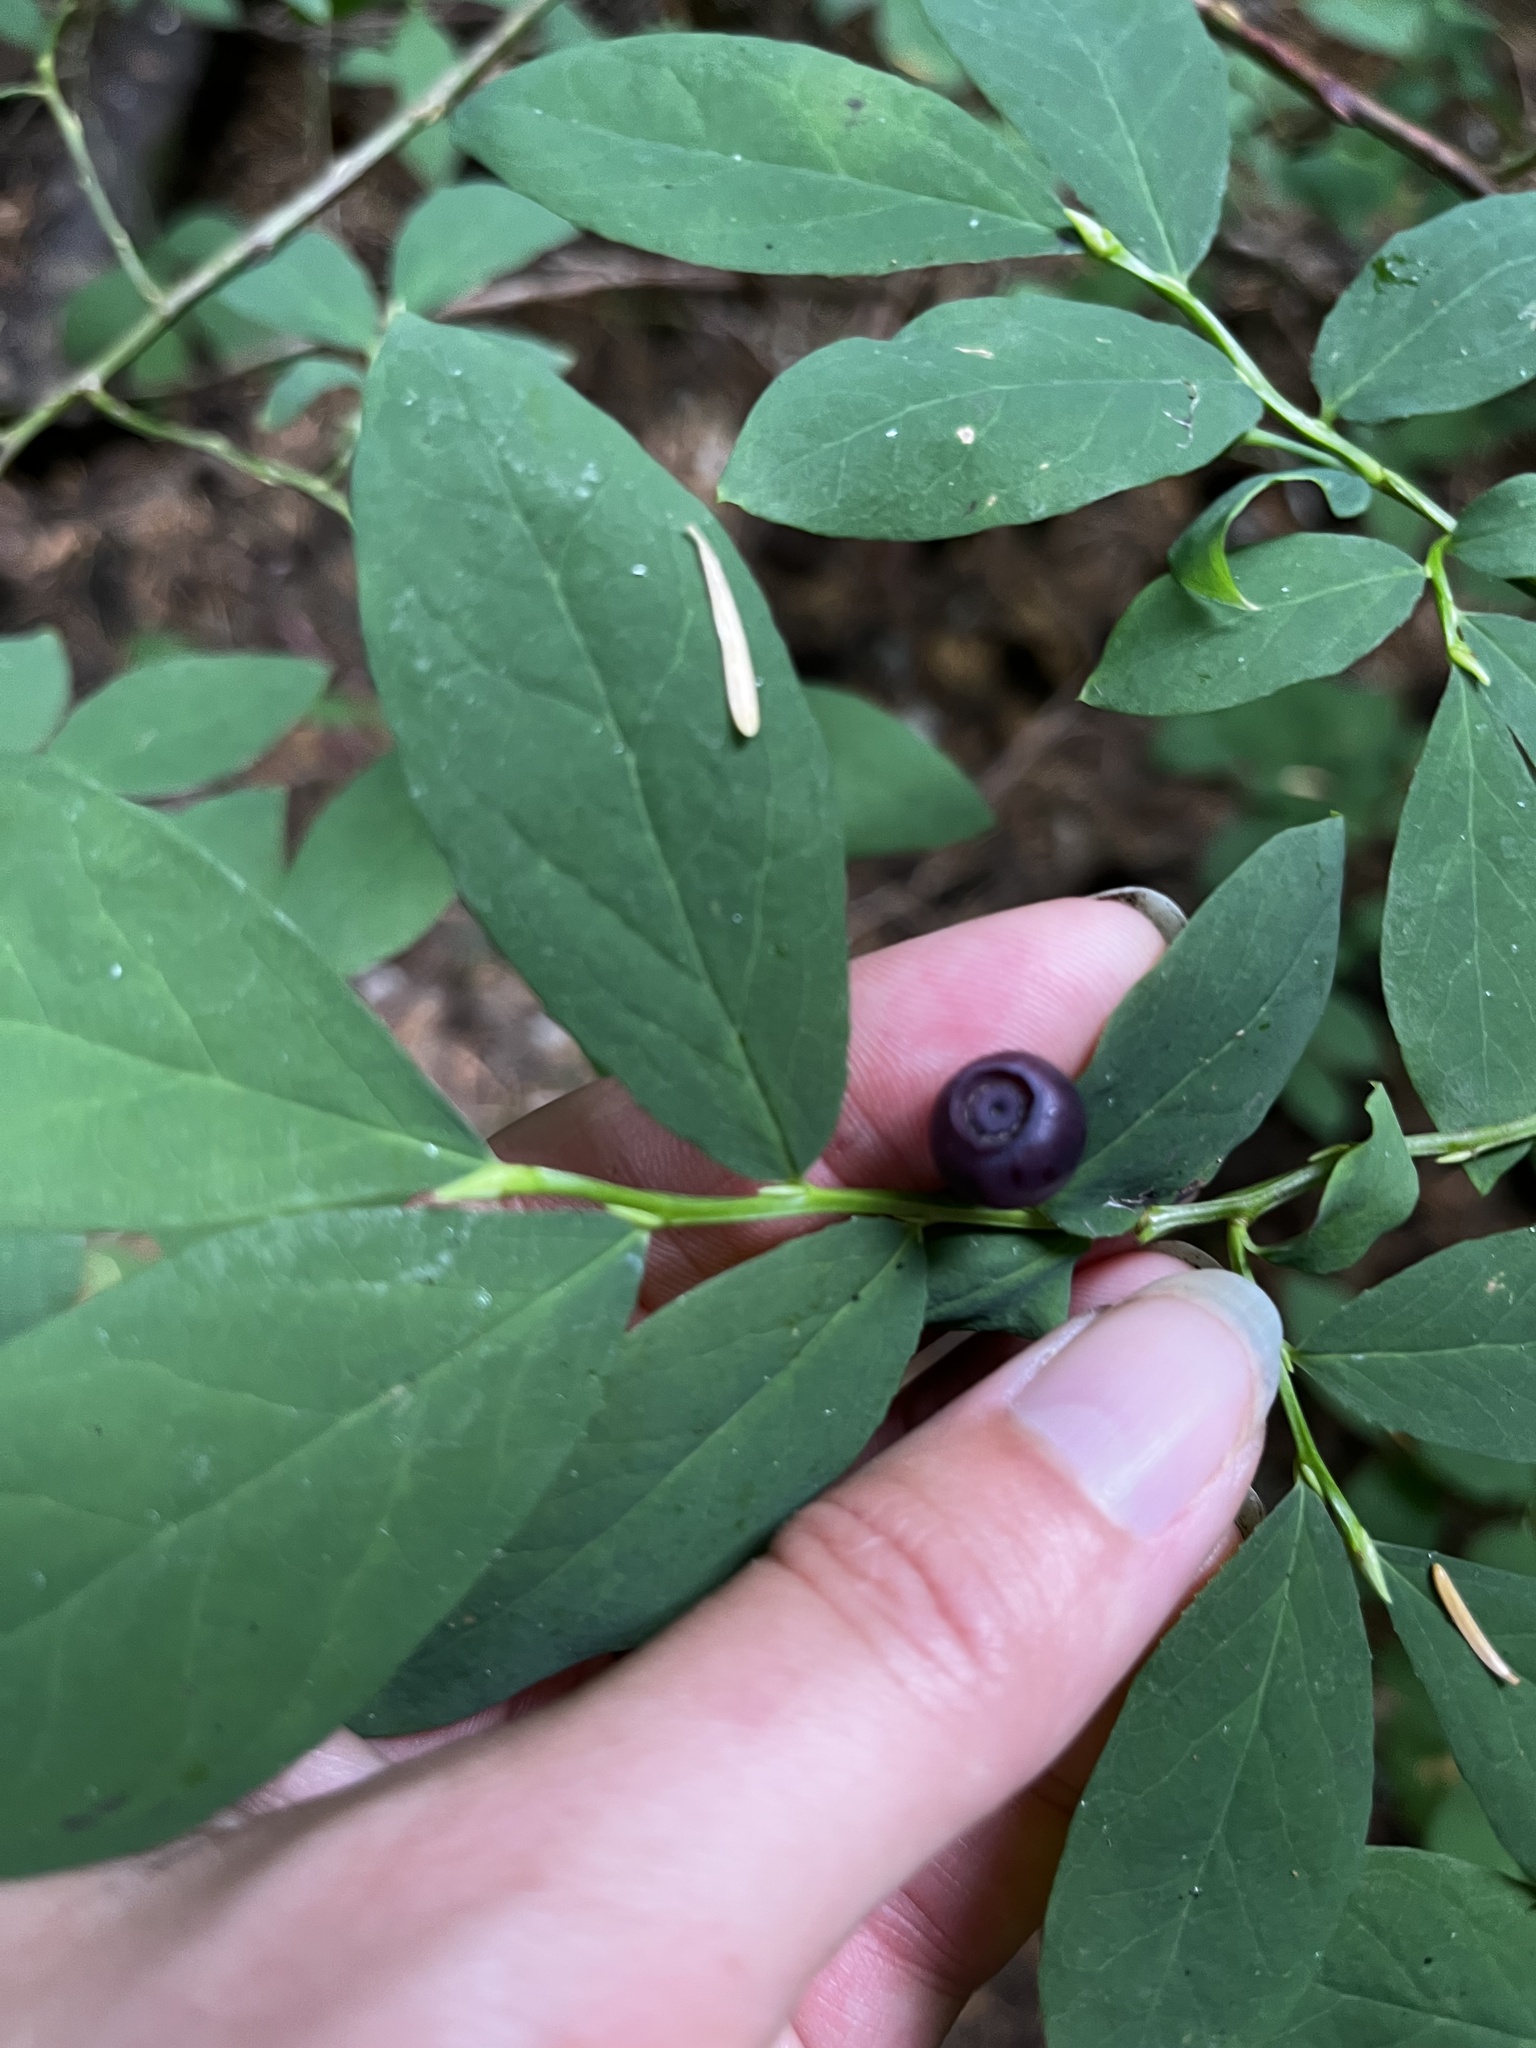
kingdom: Plantae
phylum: Tracheophyta
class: Magnoliopsida
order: Ericales
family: Ericaceae
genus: Vaccinium
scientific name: Vaccinium ovalifolium
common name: Early blueberry
